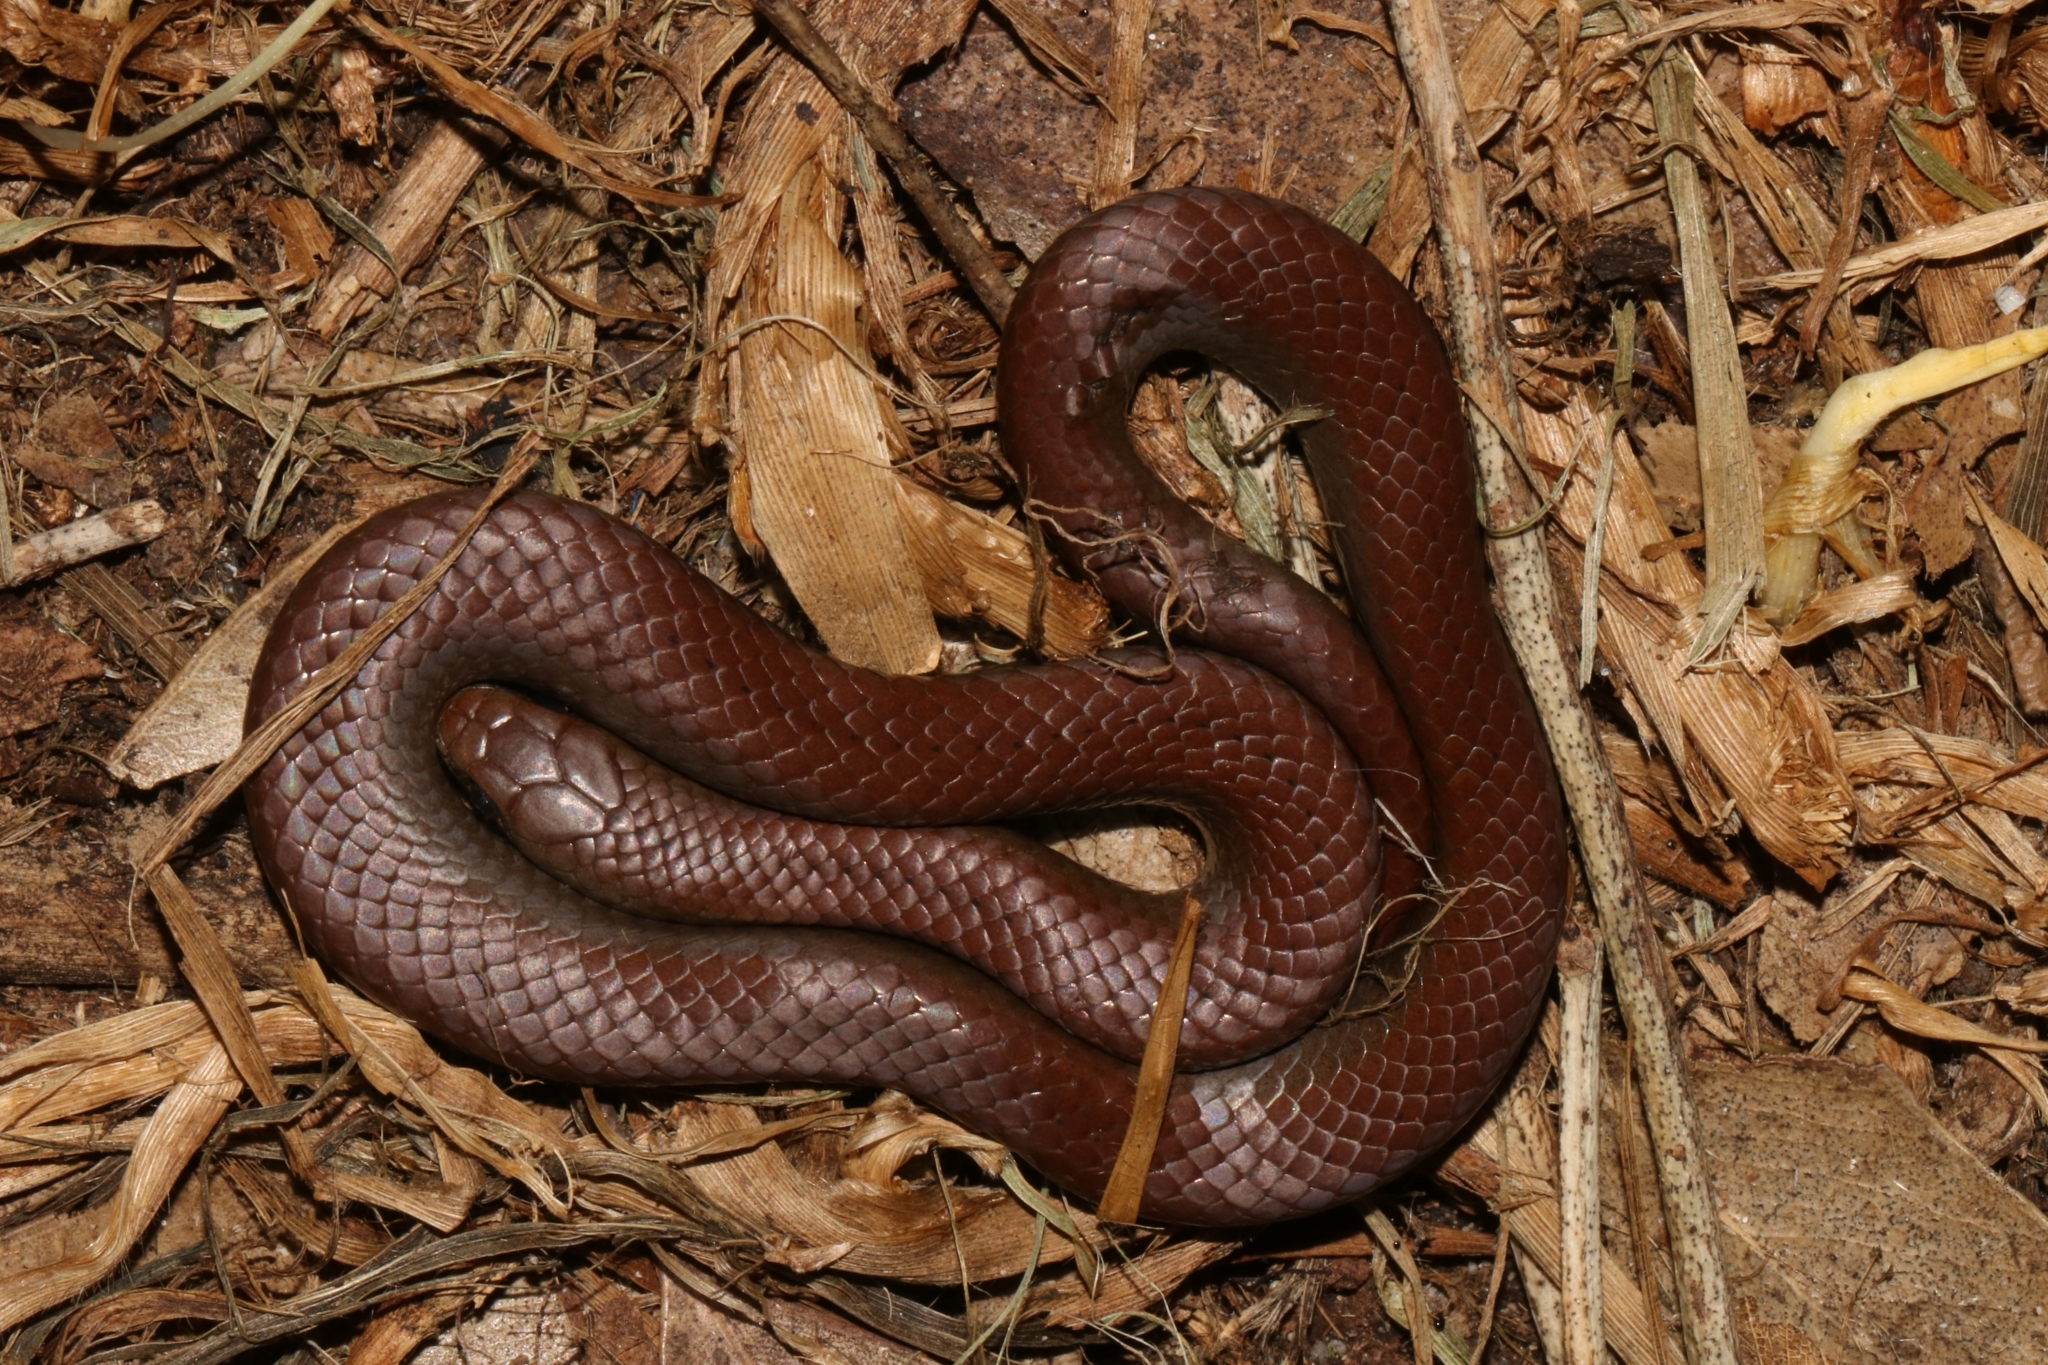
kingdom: Animalia
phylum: Chordata
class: Squamata
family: Pseudoxyrhophiidae
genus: Duberria
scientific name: Duberria lutrix
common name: Common slug eater
